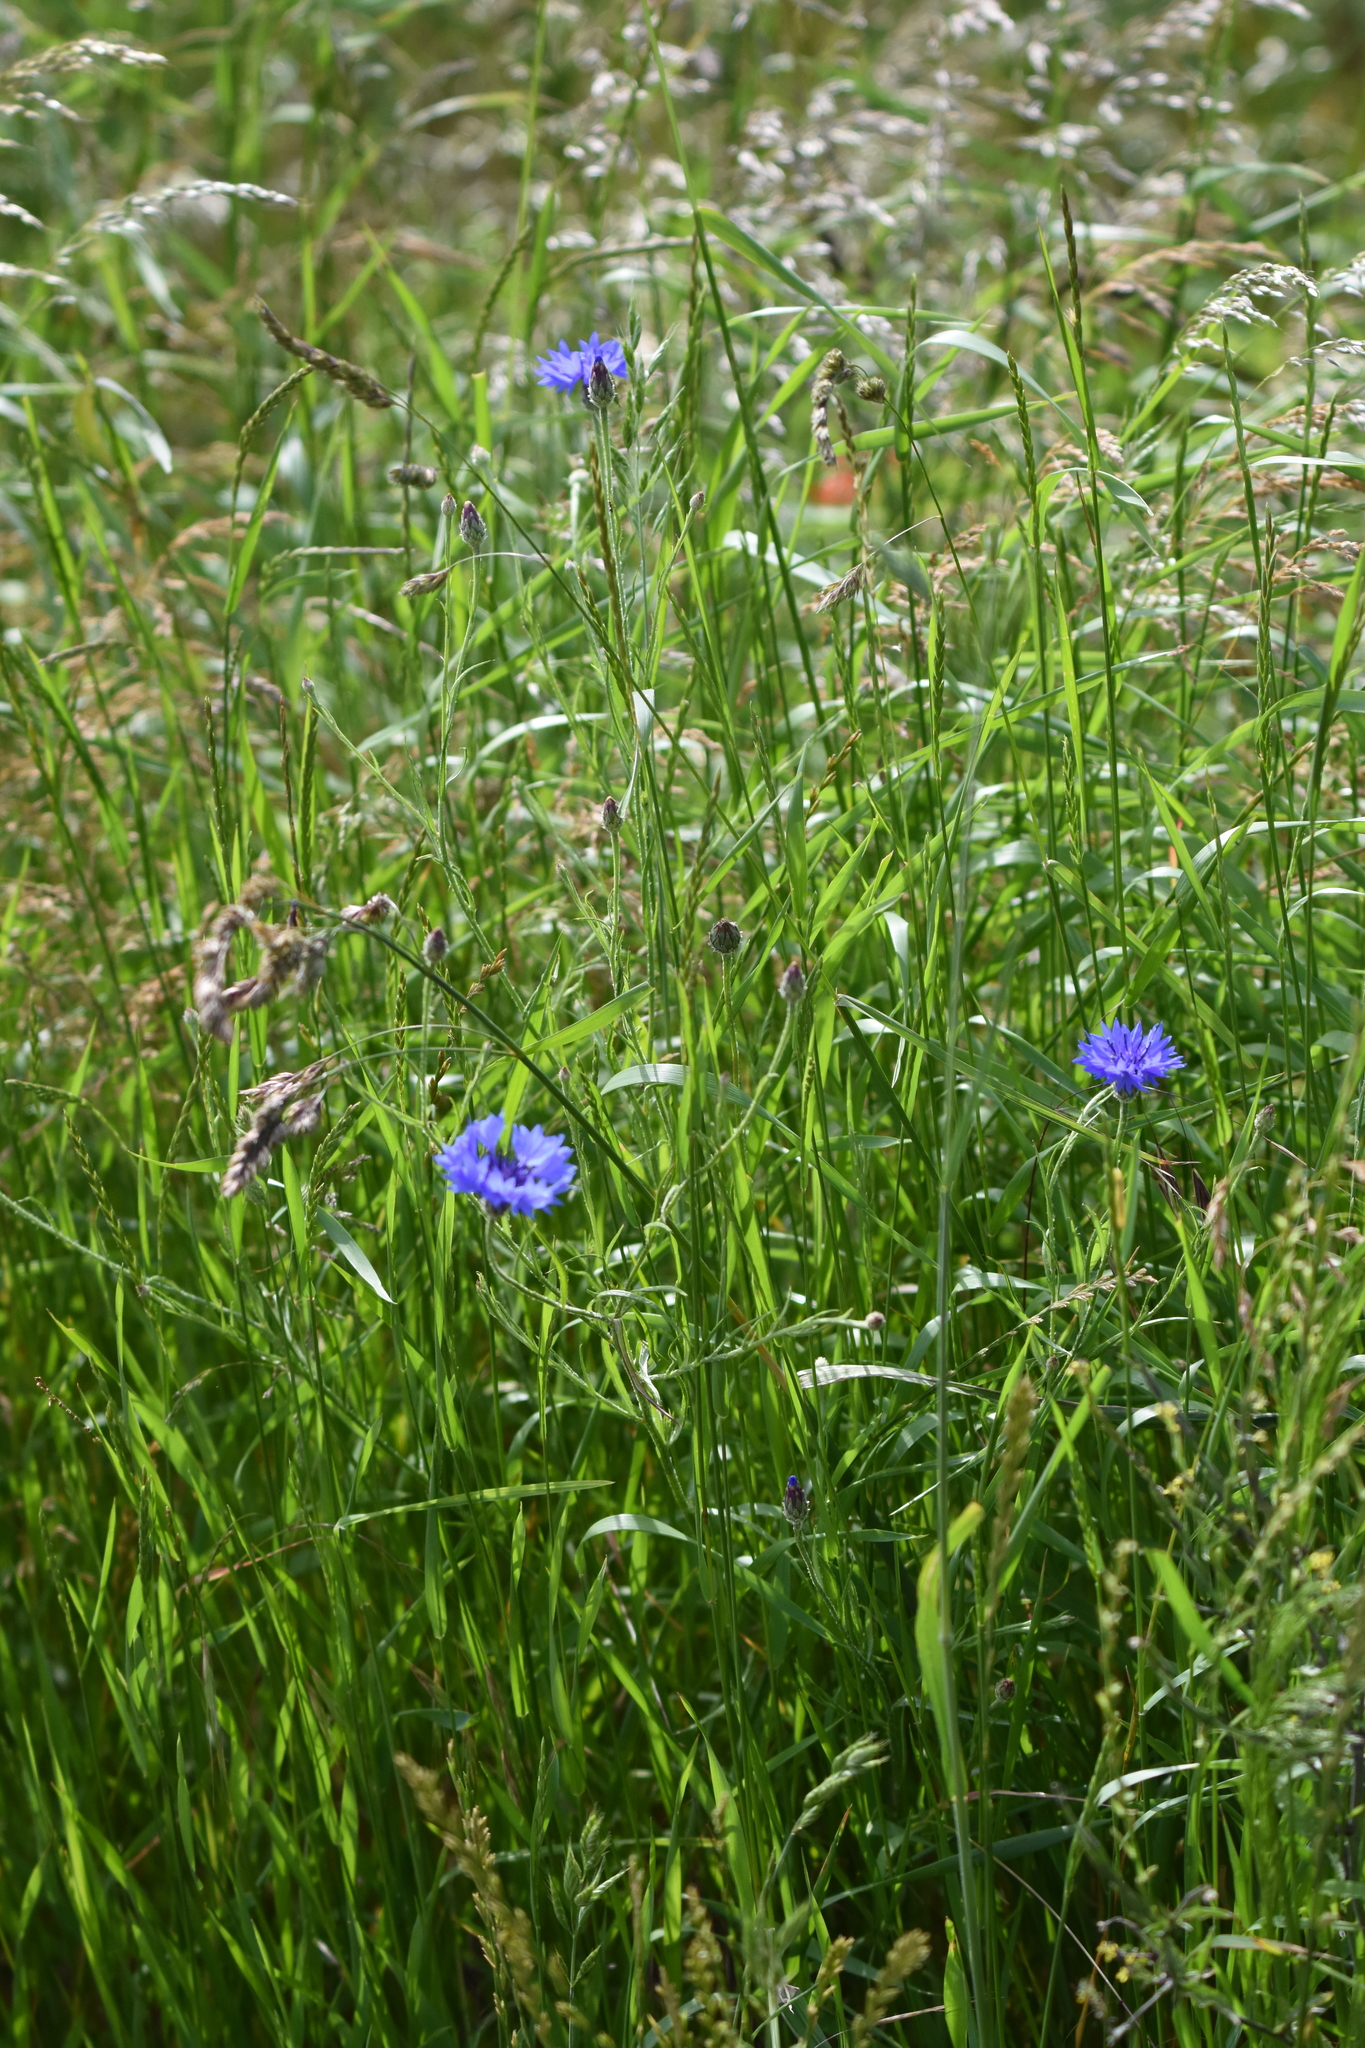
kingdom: Plantae
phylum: Tracheophyta
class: Magnoliopsida
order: Asterales
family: Asteraceae
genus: Centaurea
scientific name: Centaurea cyanus
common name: Cornflower
